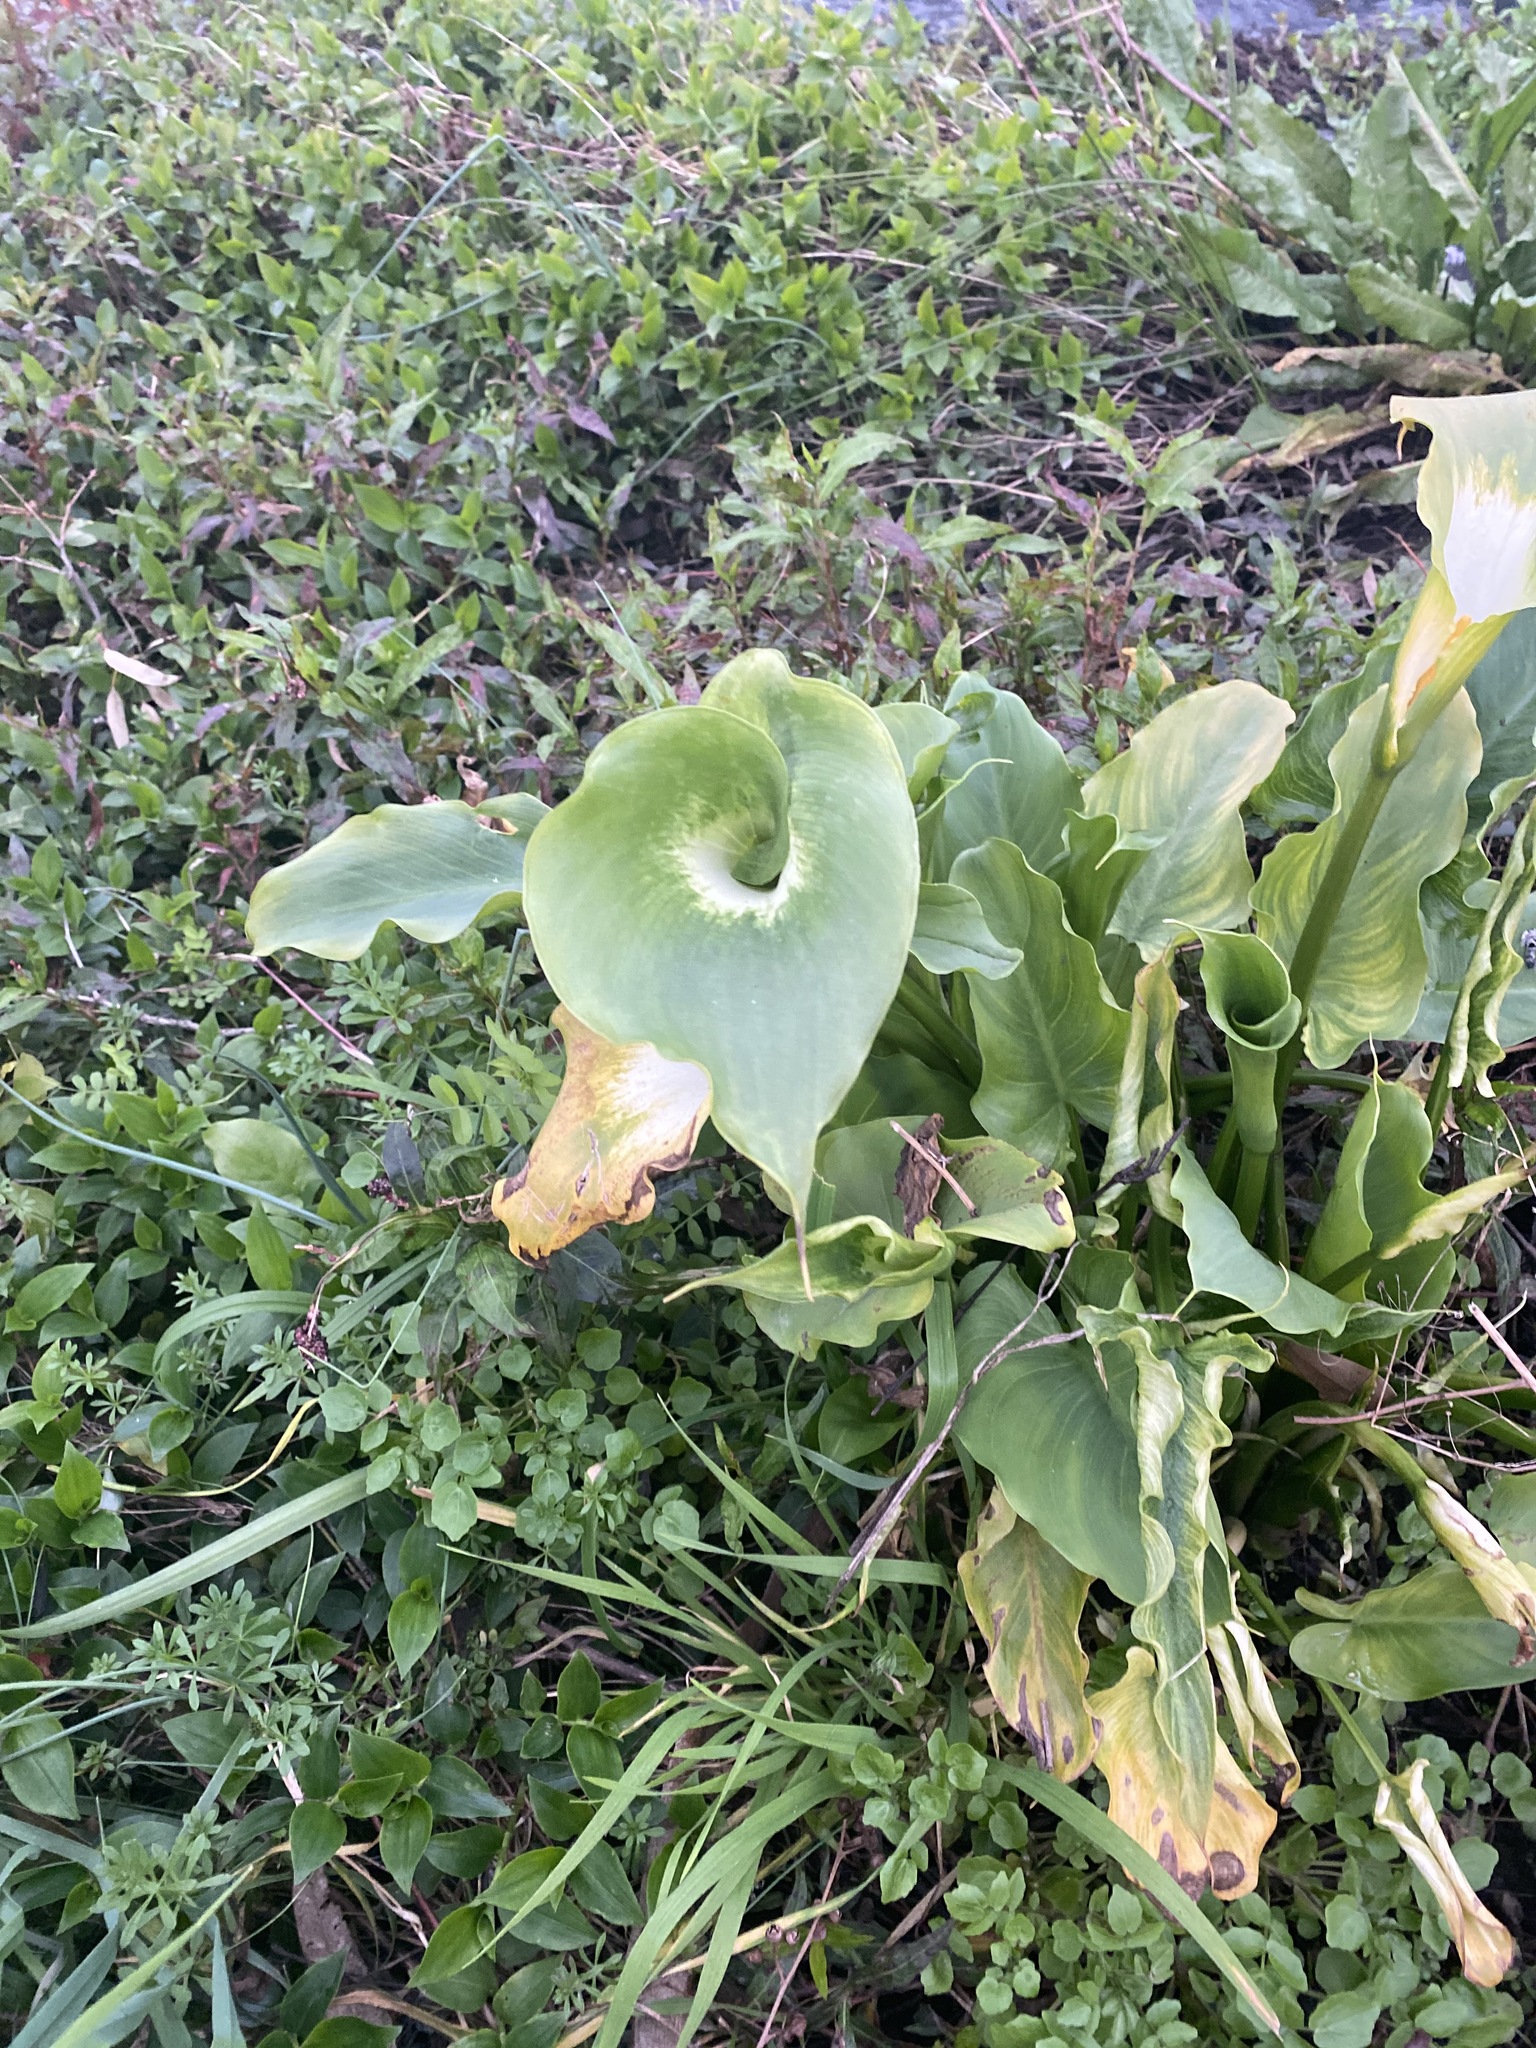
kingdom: Plantae
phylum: Tracheophyta
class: Liliopsida
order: Alismatales
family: Araceae
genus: Zantedeschia
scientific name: Zantedeschia aethiopica
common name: Altar-lily
